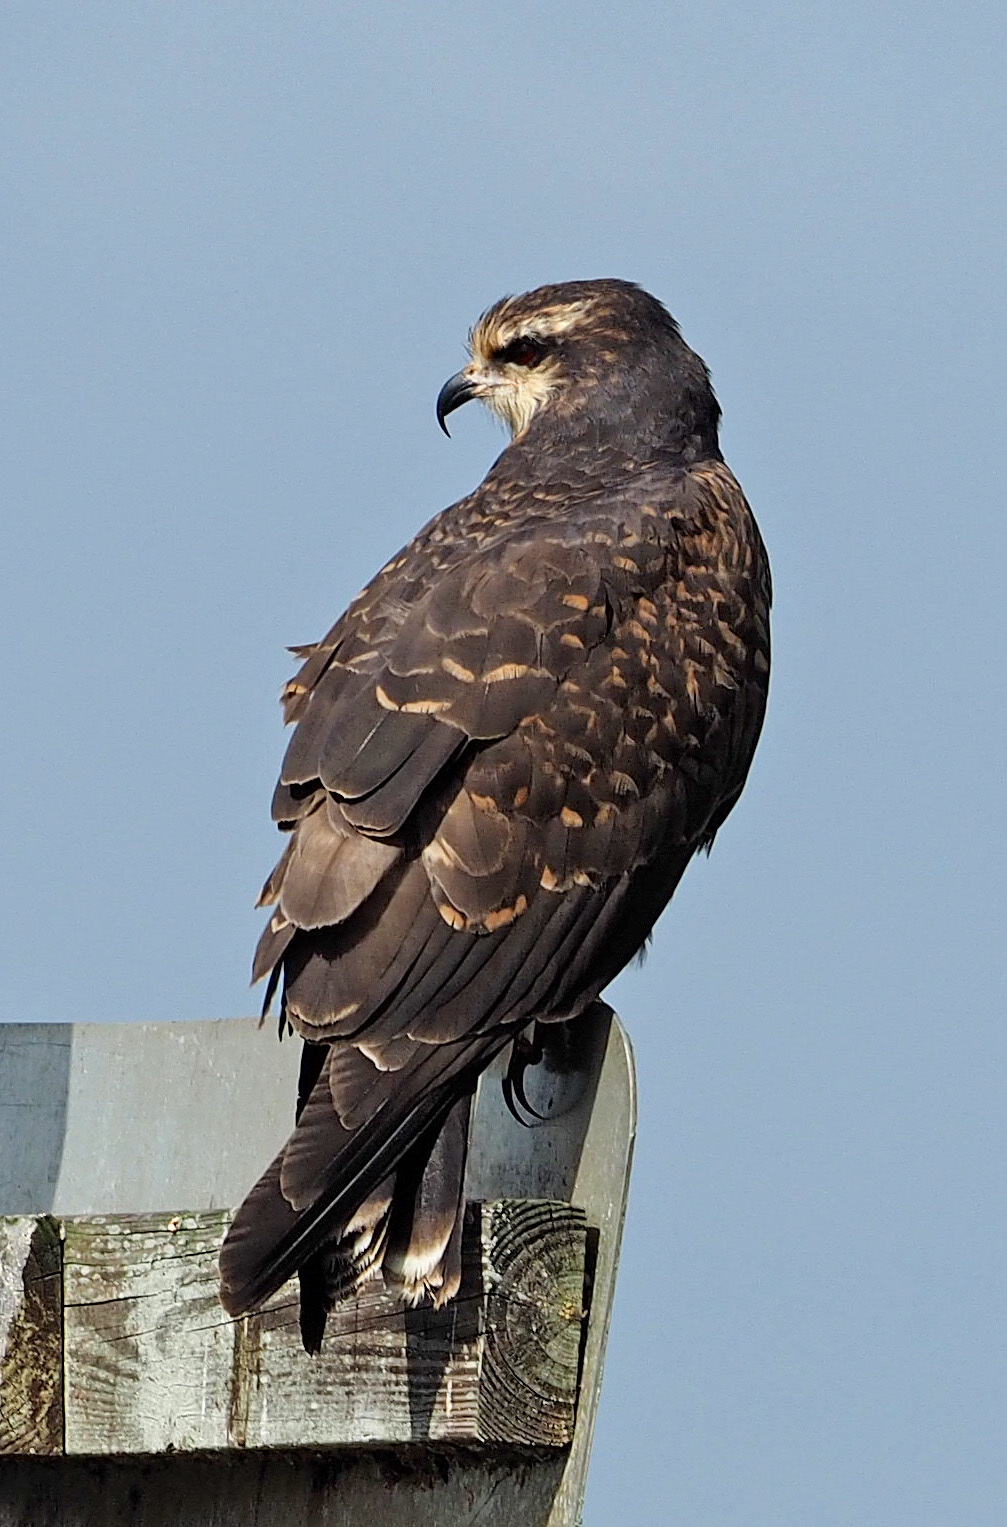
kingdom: Animalia
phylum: Chordata
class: Aves
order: Accipitriformes
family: Accipitridae
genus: Rostrhamus
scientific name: Rostrhamus sociabilis
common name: Snail kite
